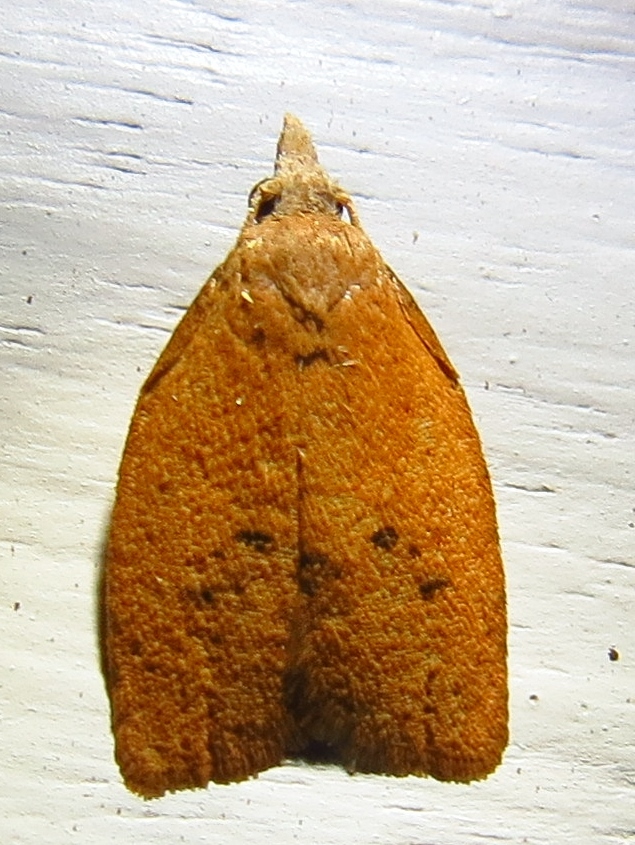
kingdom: Animalia
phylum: Arthropoda
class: Insecta
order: Lepidoptera
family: Tortricidae
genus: Sparganothoides
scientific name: Sparganothoides lentiginosana
